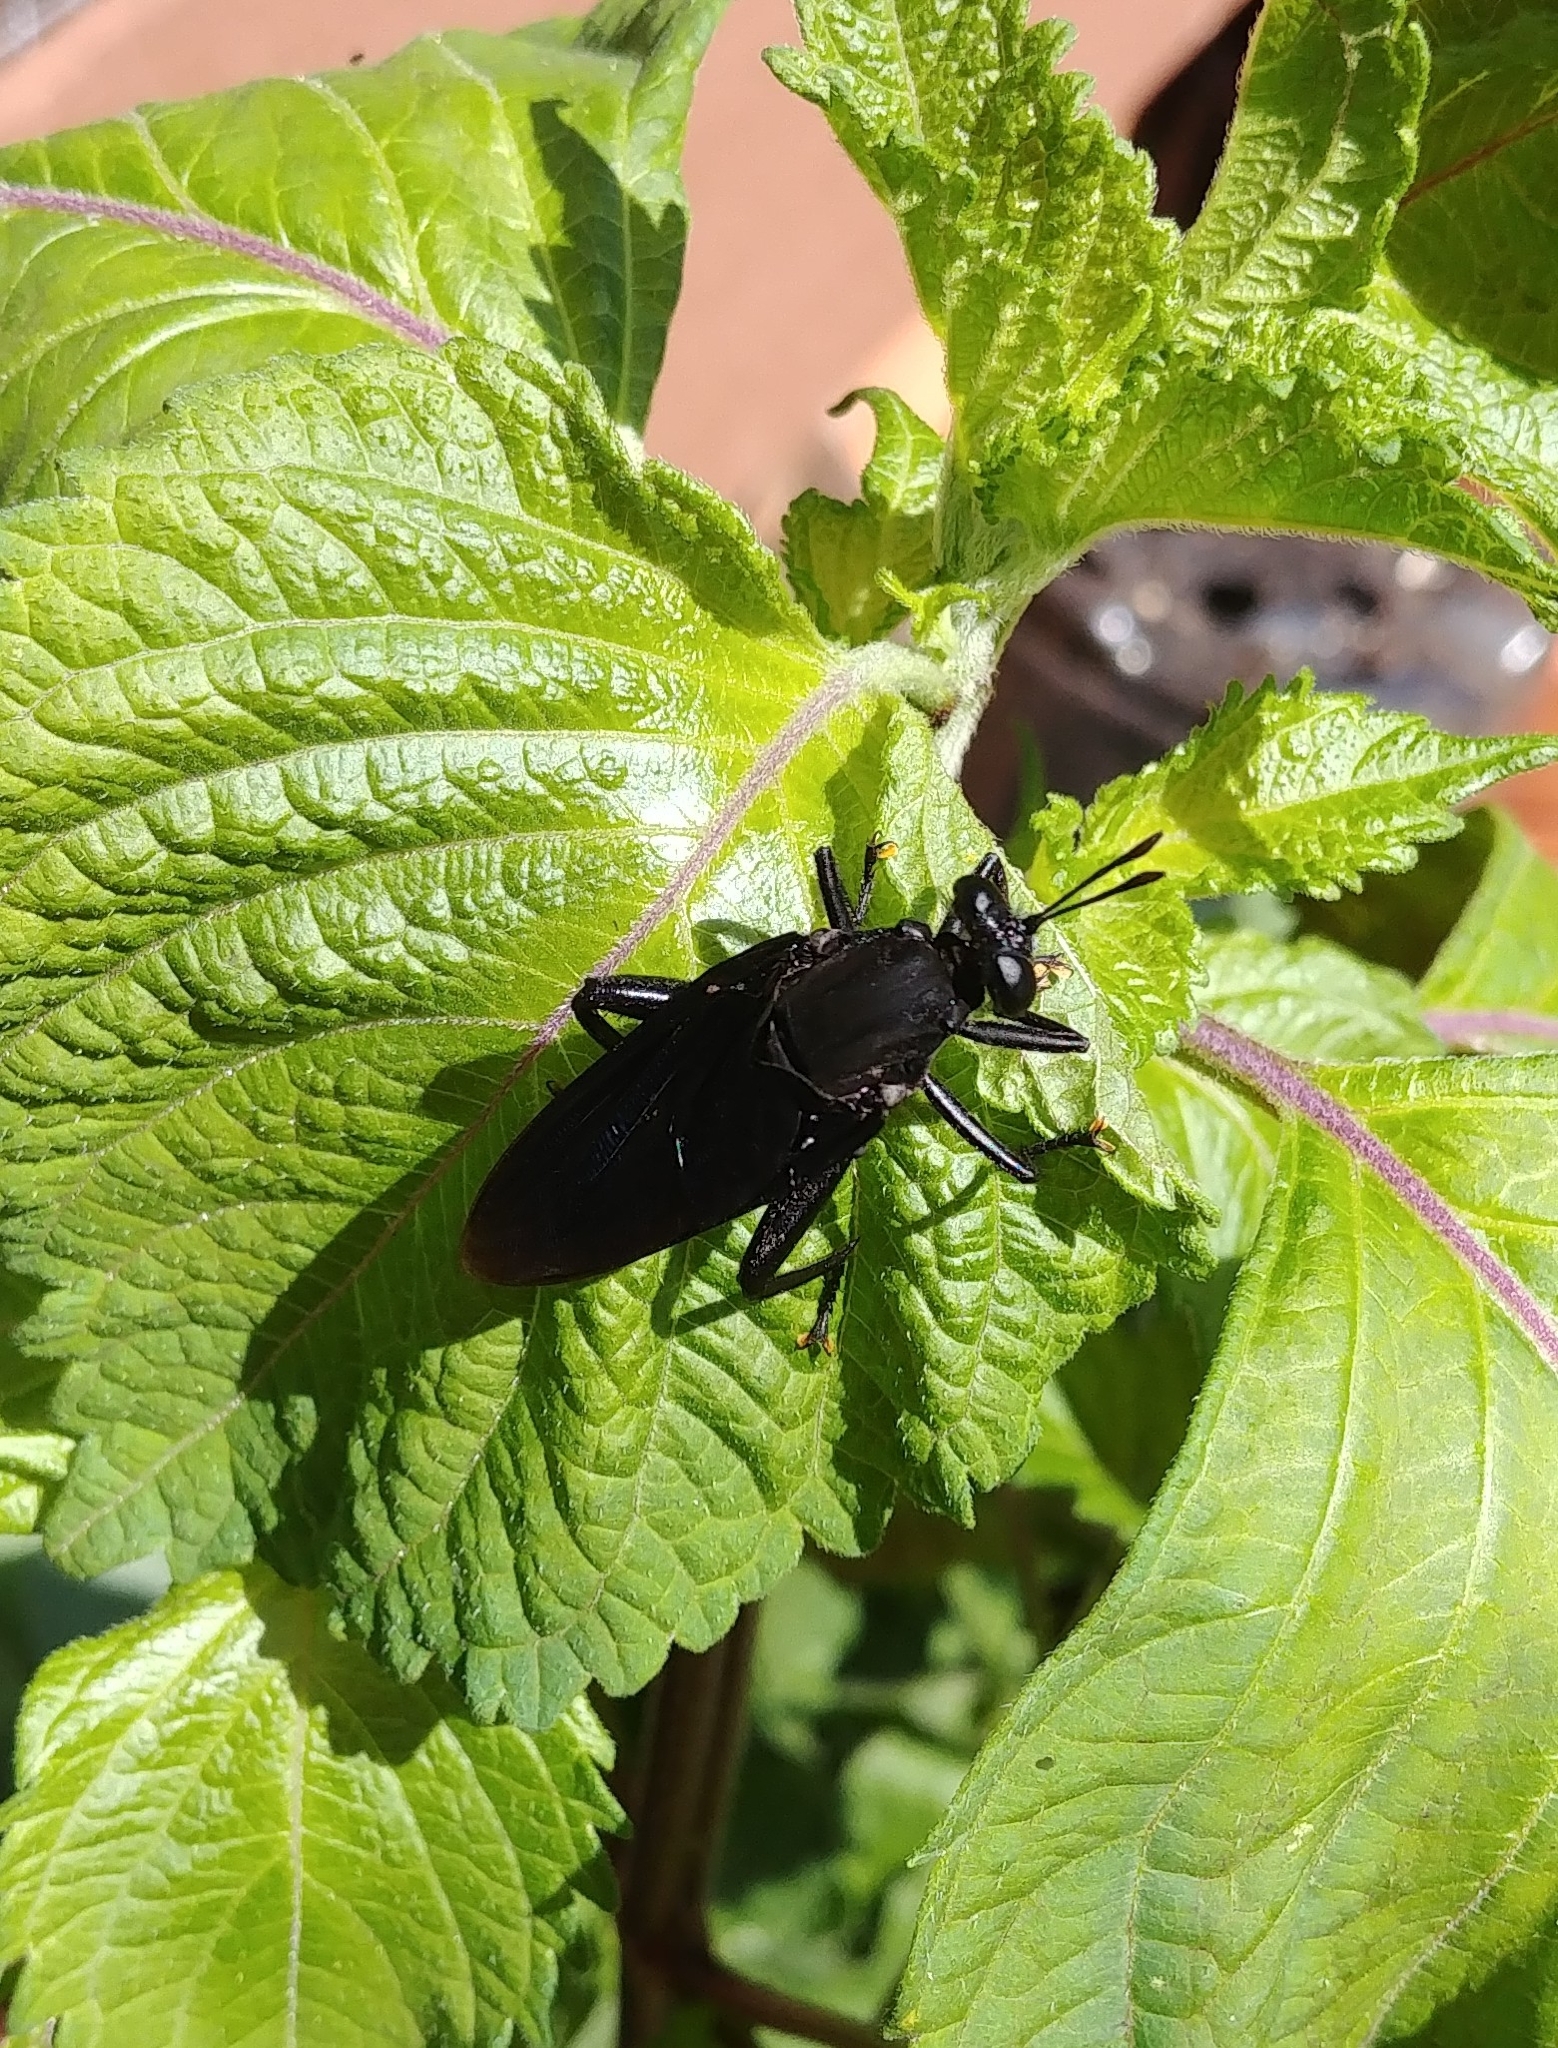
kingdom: Animalia
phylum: Arthropoda
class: Insecta
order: Diptera
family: Mydidae
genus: Mydas
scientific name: Mydas clavatus
